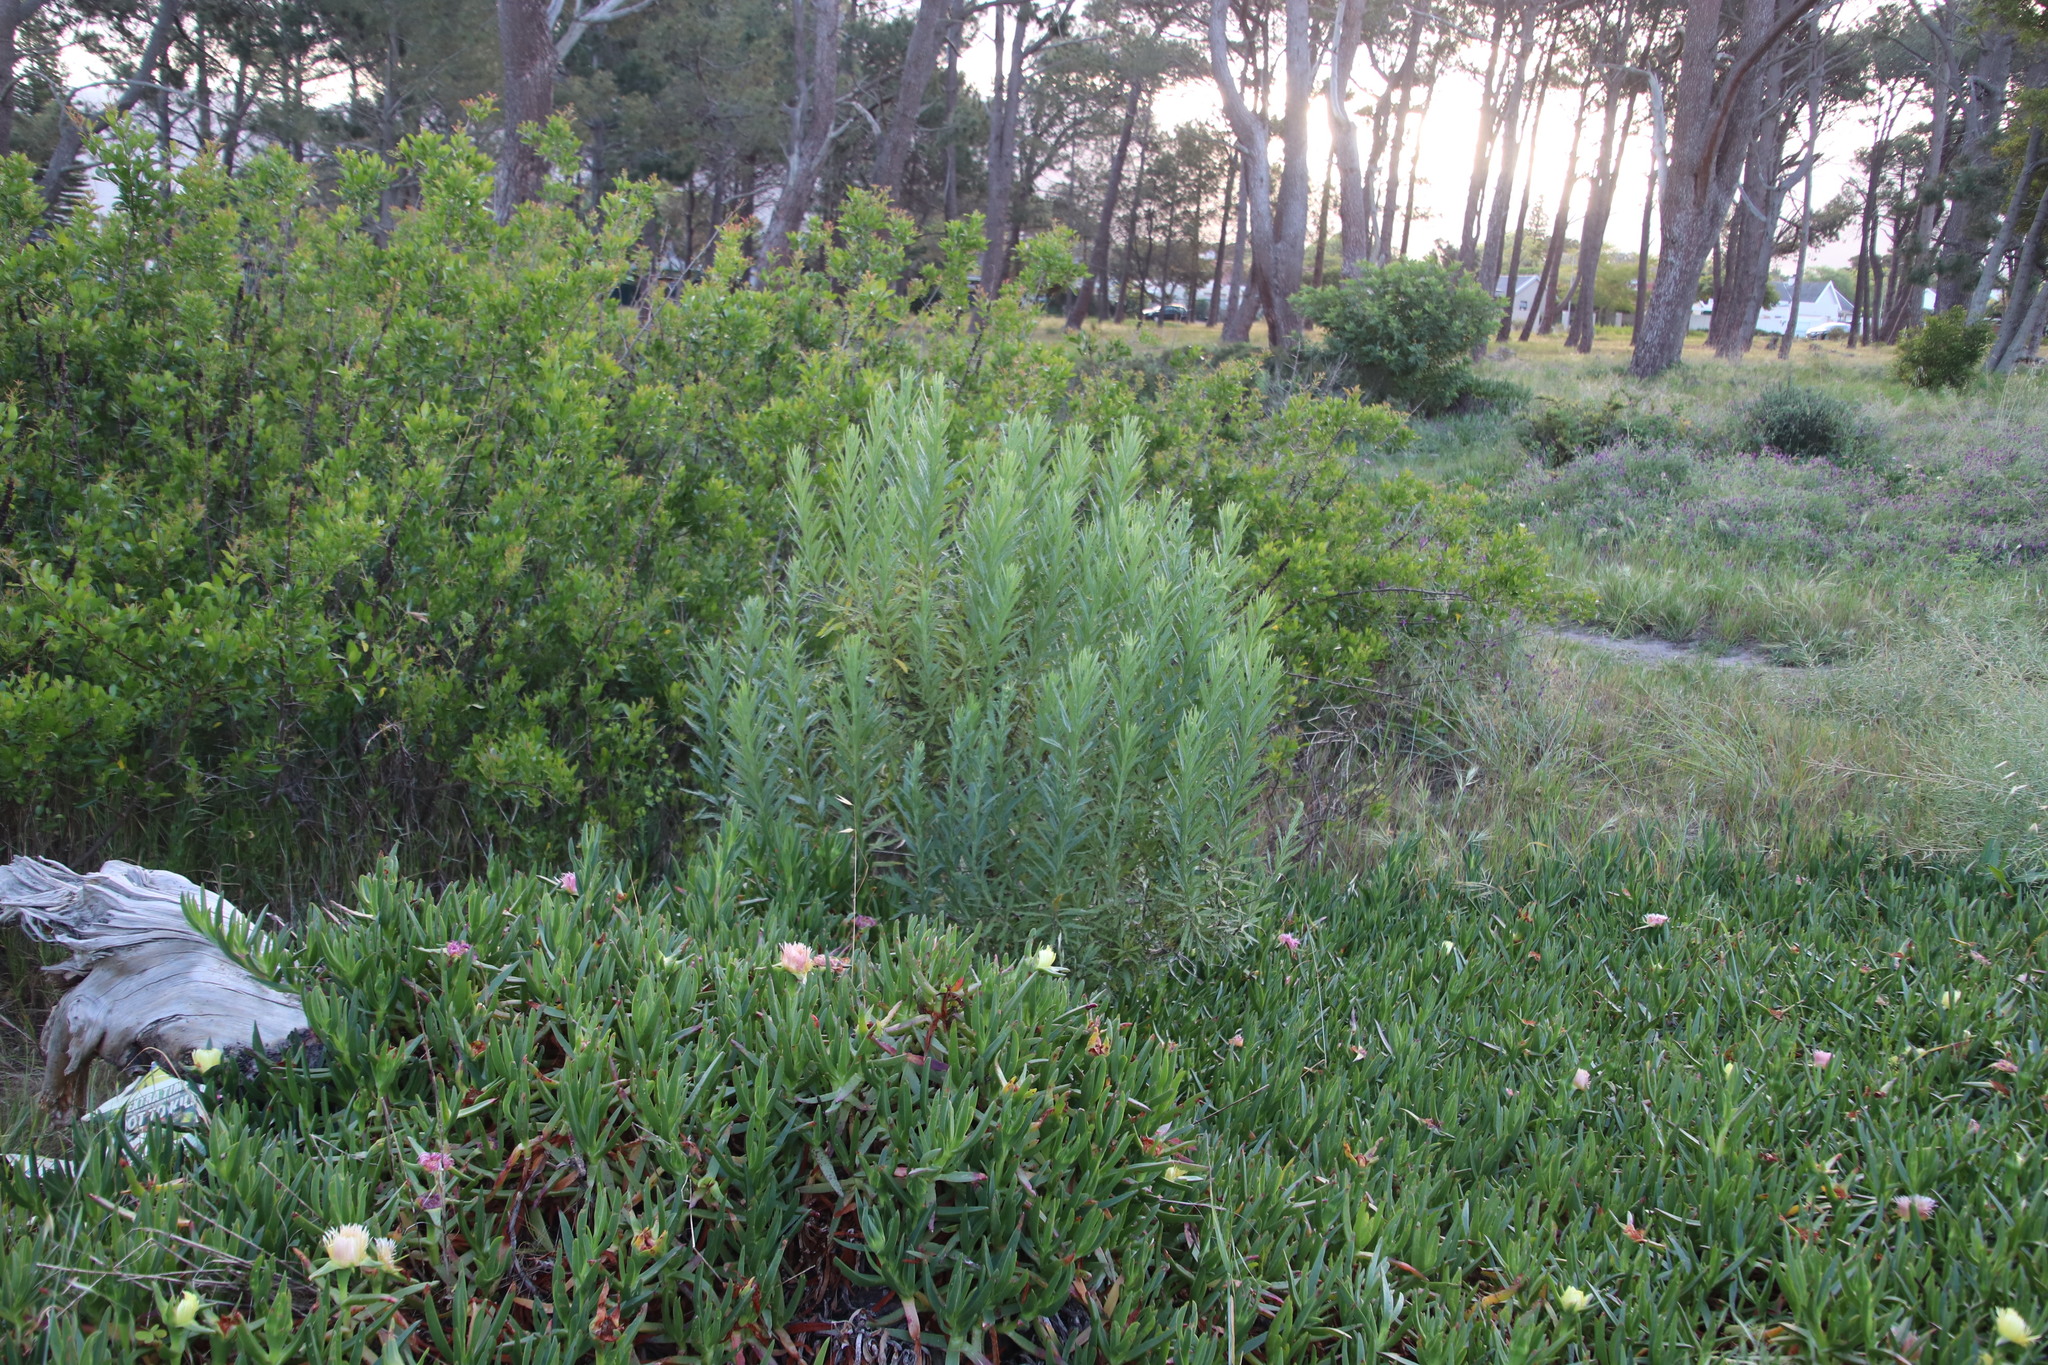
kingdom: Plantae
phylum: Tracheophyta
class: Magnoliopsida
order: Asterales
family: Asteraceae
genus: Senecio
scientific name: Senecio pterophorus
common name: Shoddy ragwort
